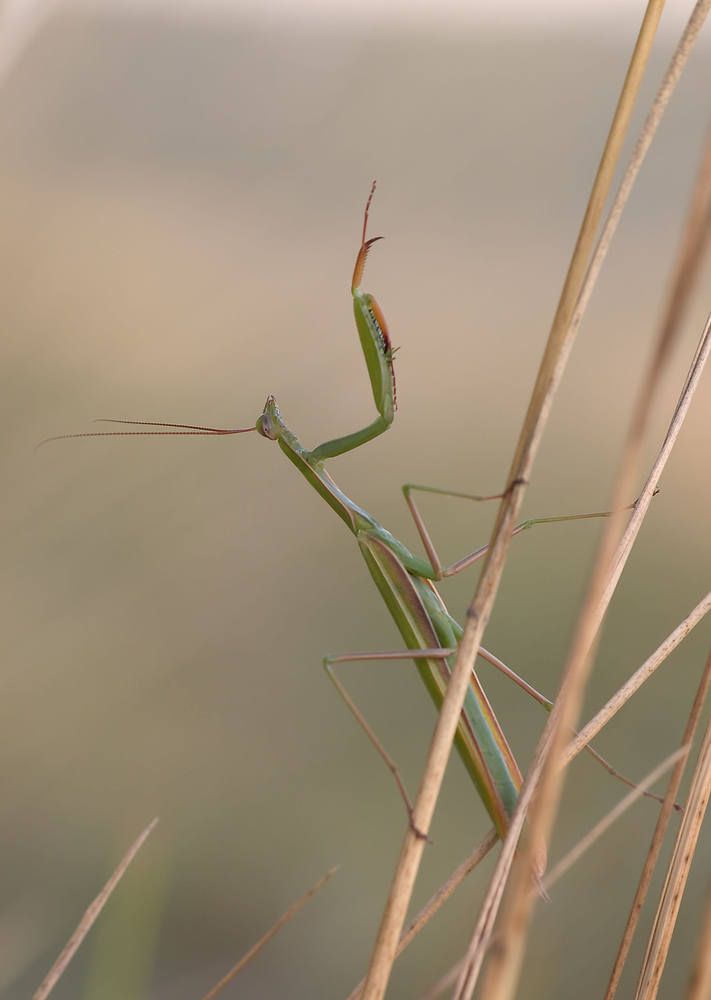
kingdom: Animalia
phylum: Arthropoda
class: Insecta
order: Mantodea
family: Mantidae
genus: Mantis
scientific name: Mantis religiosa
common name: Praying mantis
